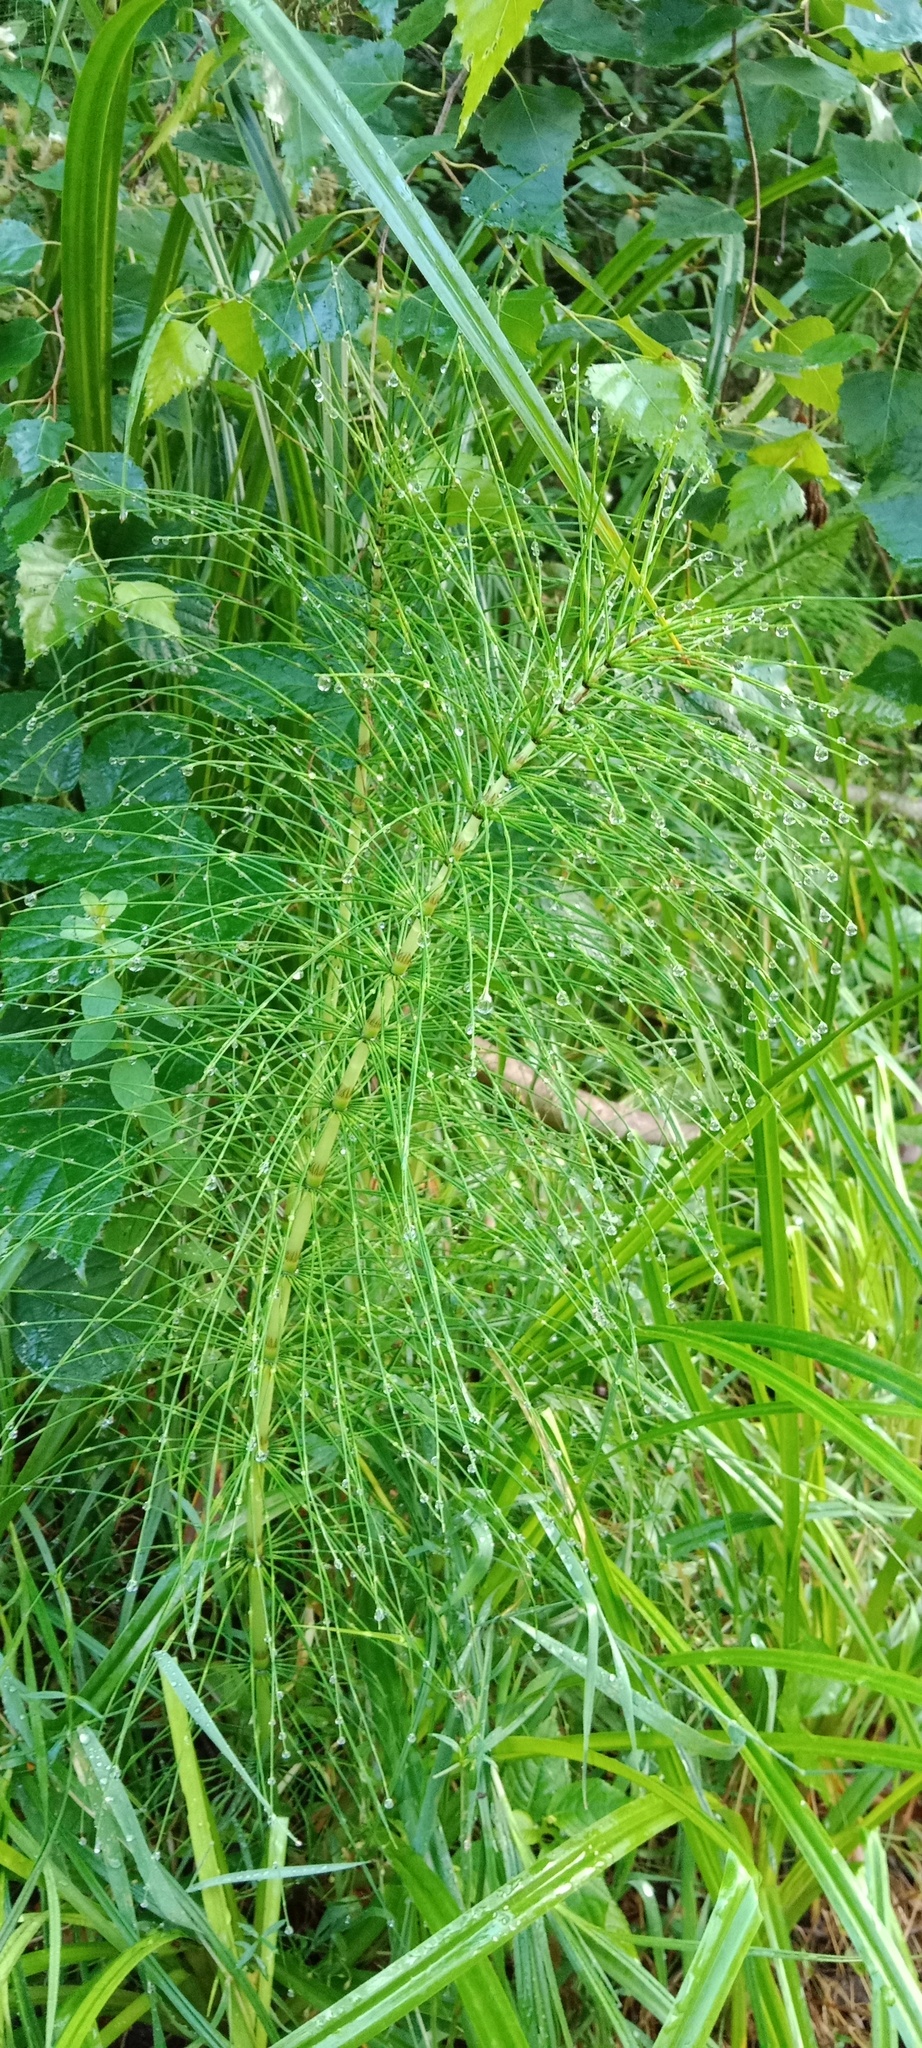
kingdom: Plantae
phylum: Tracheophyta
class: Polypodiopsida
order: Equisetales
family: Equisetaceae
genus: Equisetum
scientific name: Equisetum telmateia
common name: Great horsetail
